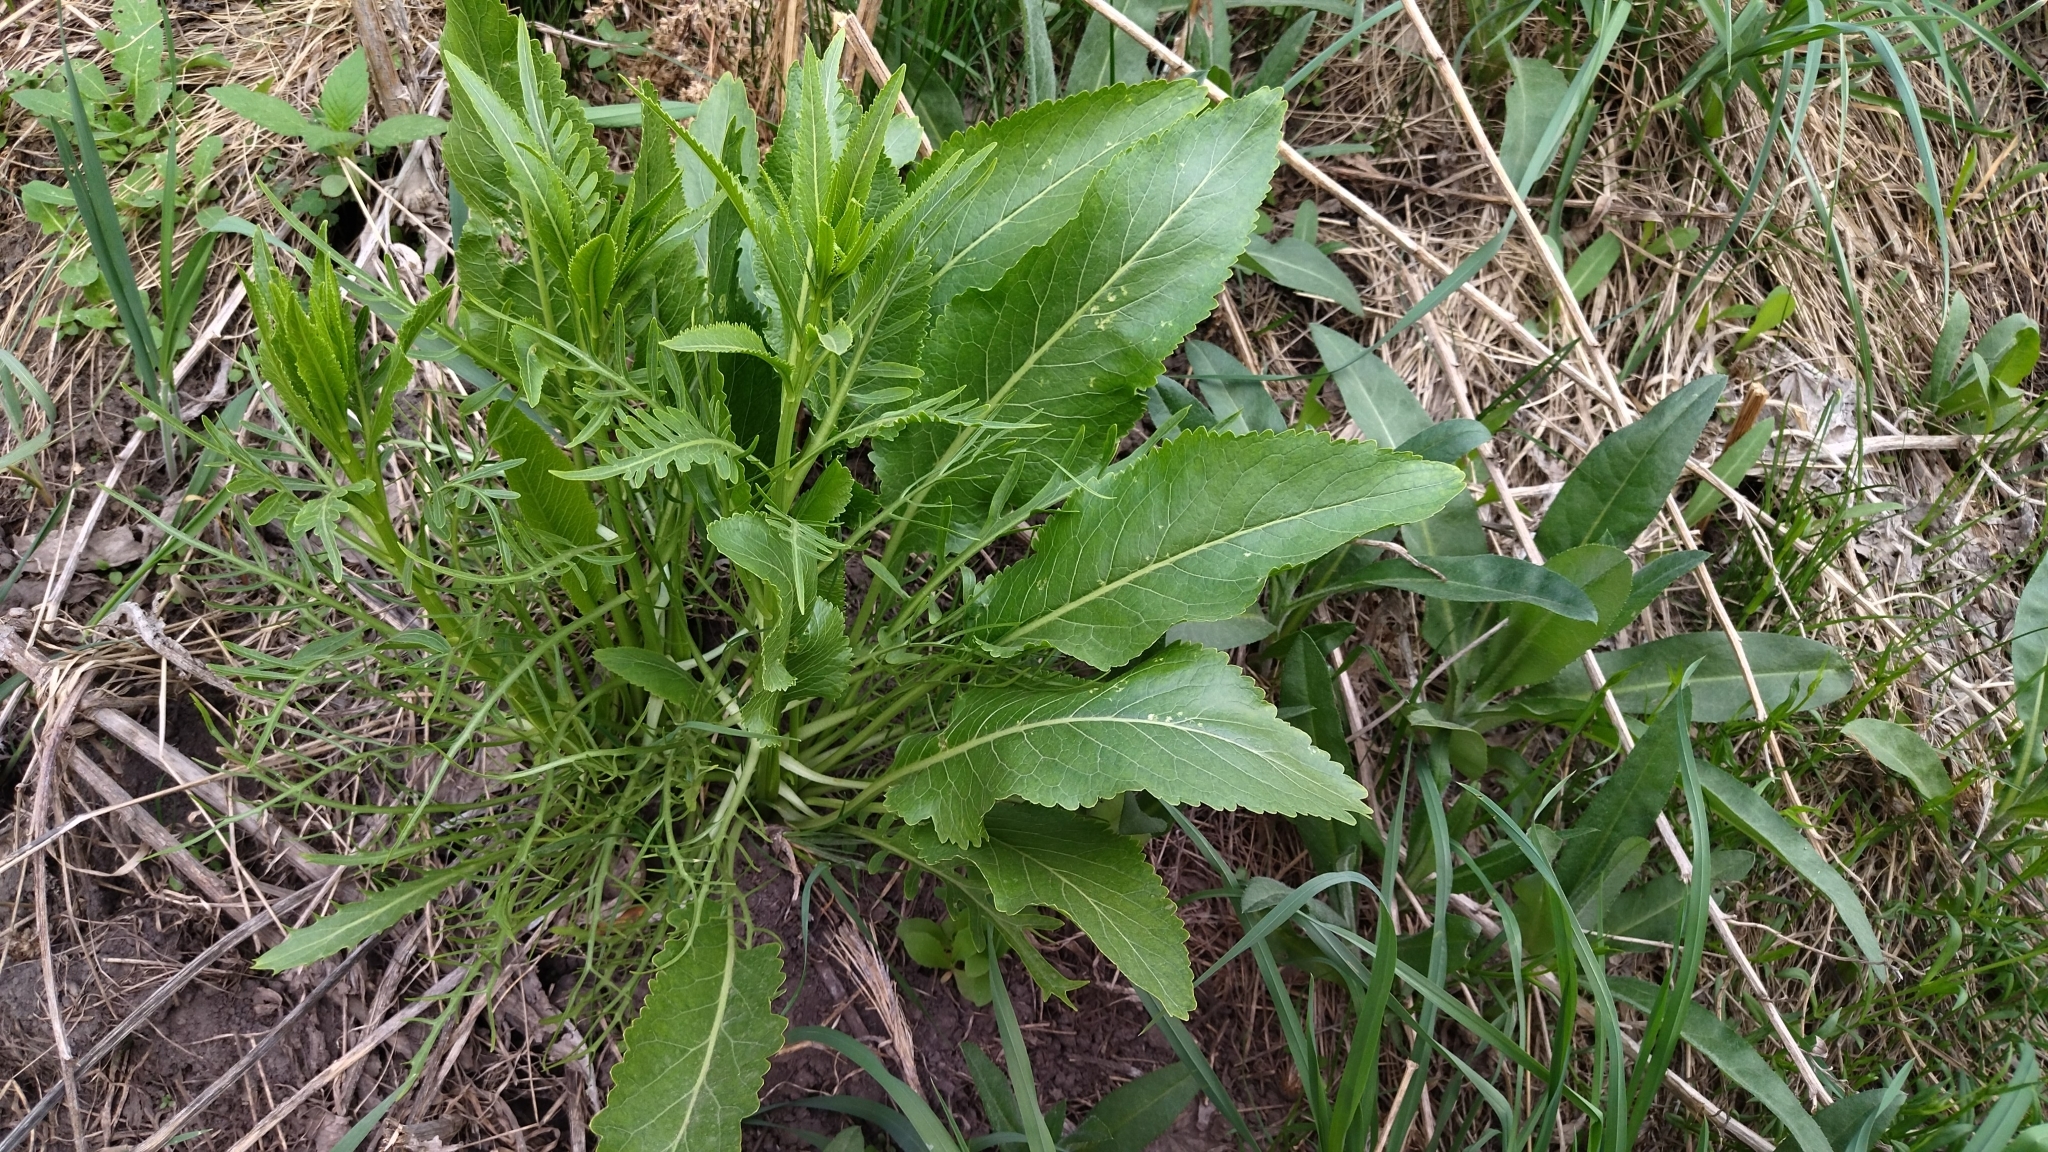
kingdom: Plantae
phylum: Tracheophyta
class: Magnoliopsida
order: Brassicales
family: Brassicaceae
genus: Armoracia
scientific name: Armoracia rusticana
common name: Horseradish
